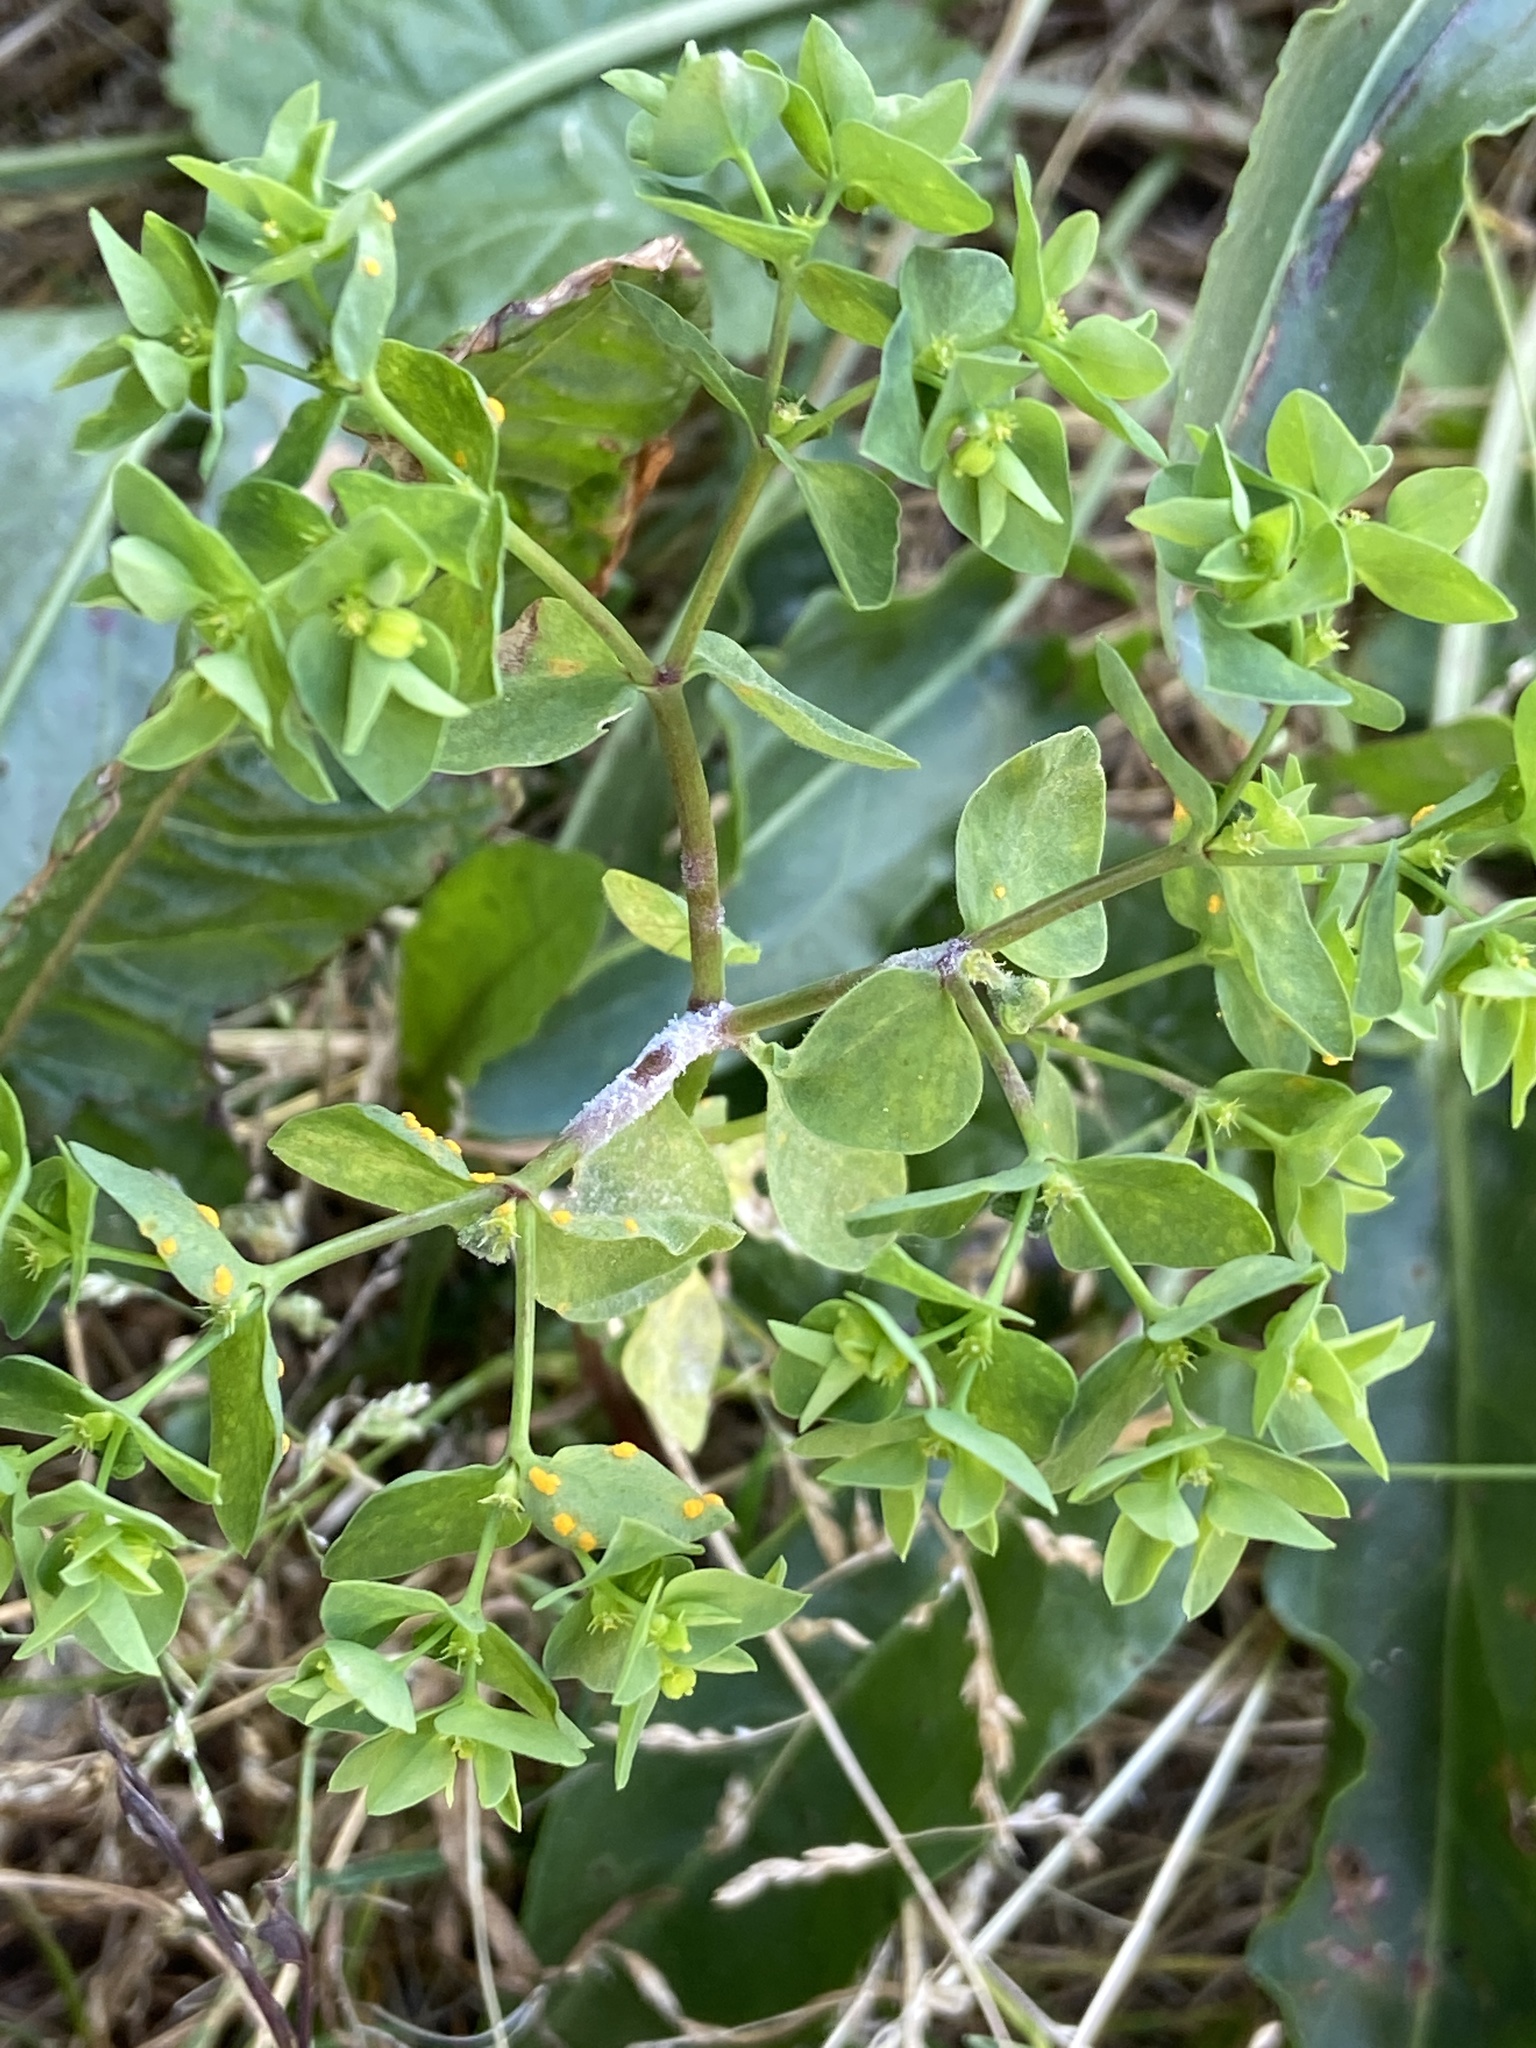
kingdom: Plantae
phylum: Tracheophyta
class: Magnoliopsida
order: Malpighiales
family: Euphorbiaceae
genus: Euphorbia
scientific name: Euphorbia peplus
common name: Petty spurge
